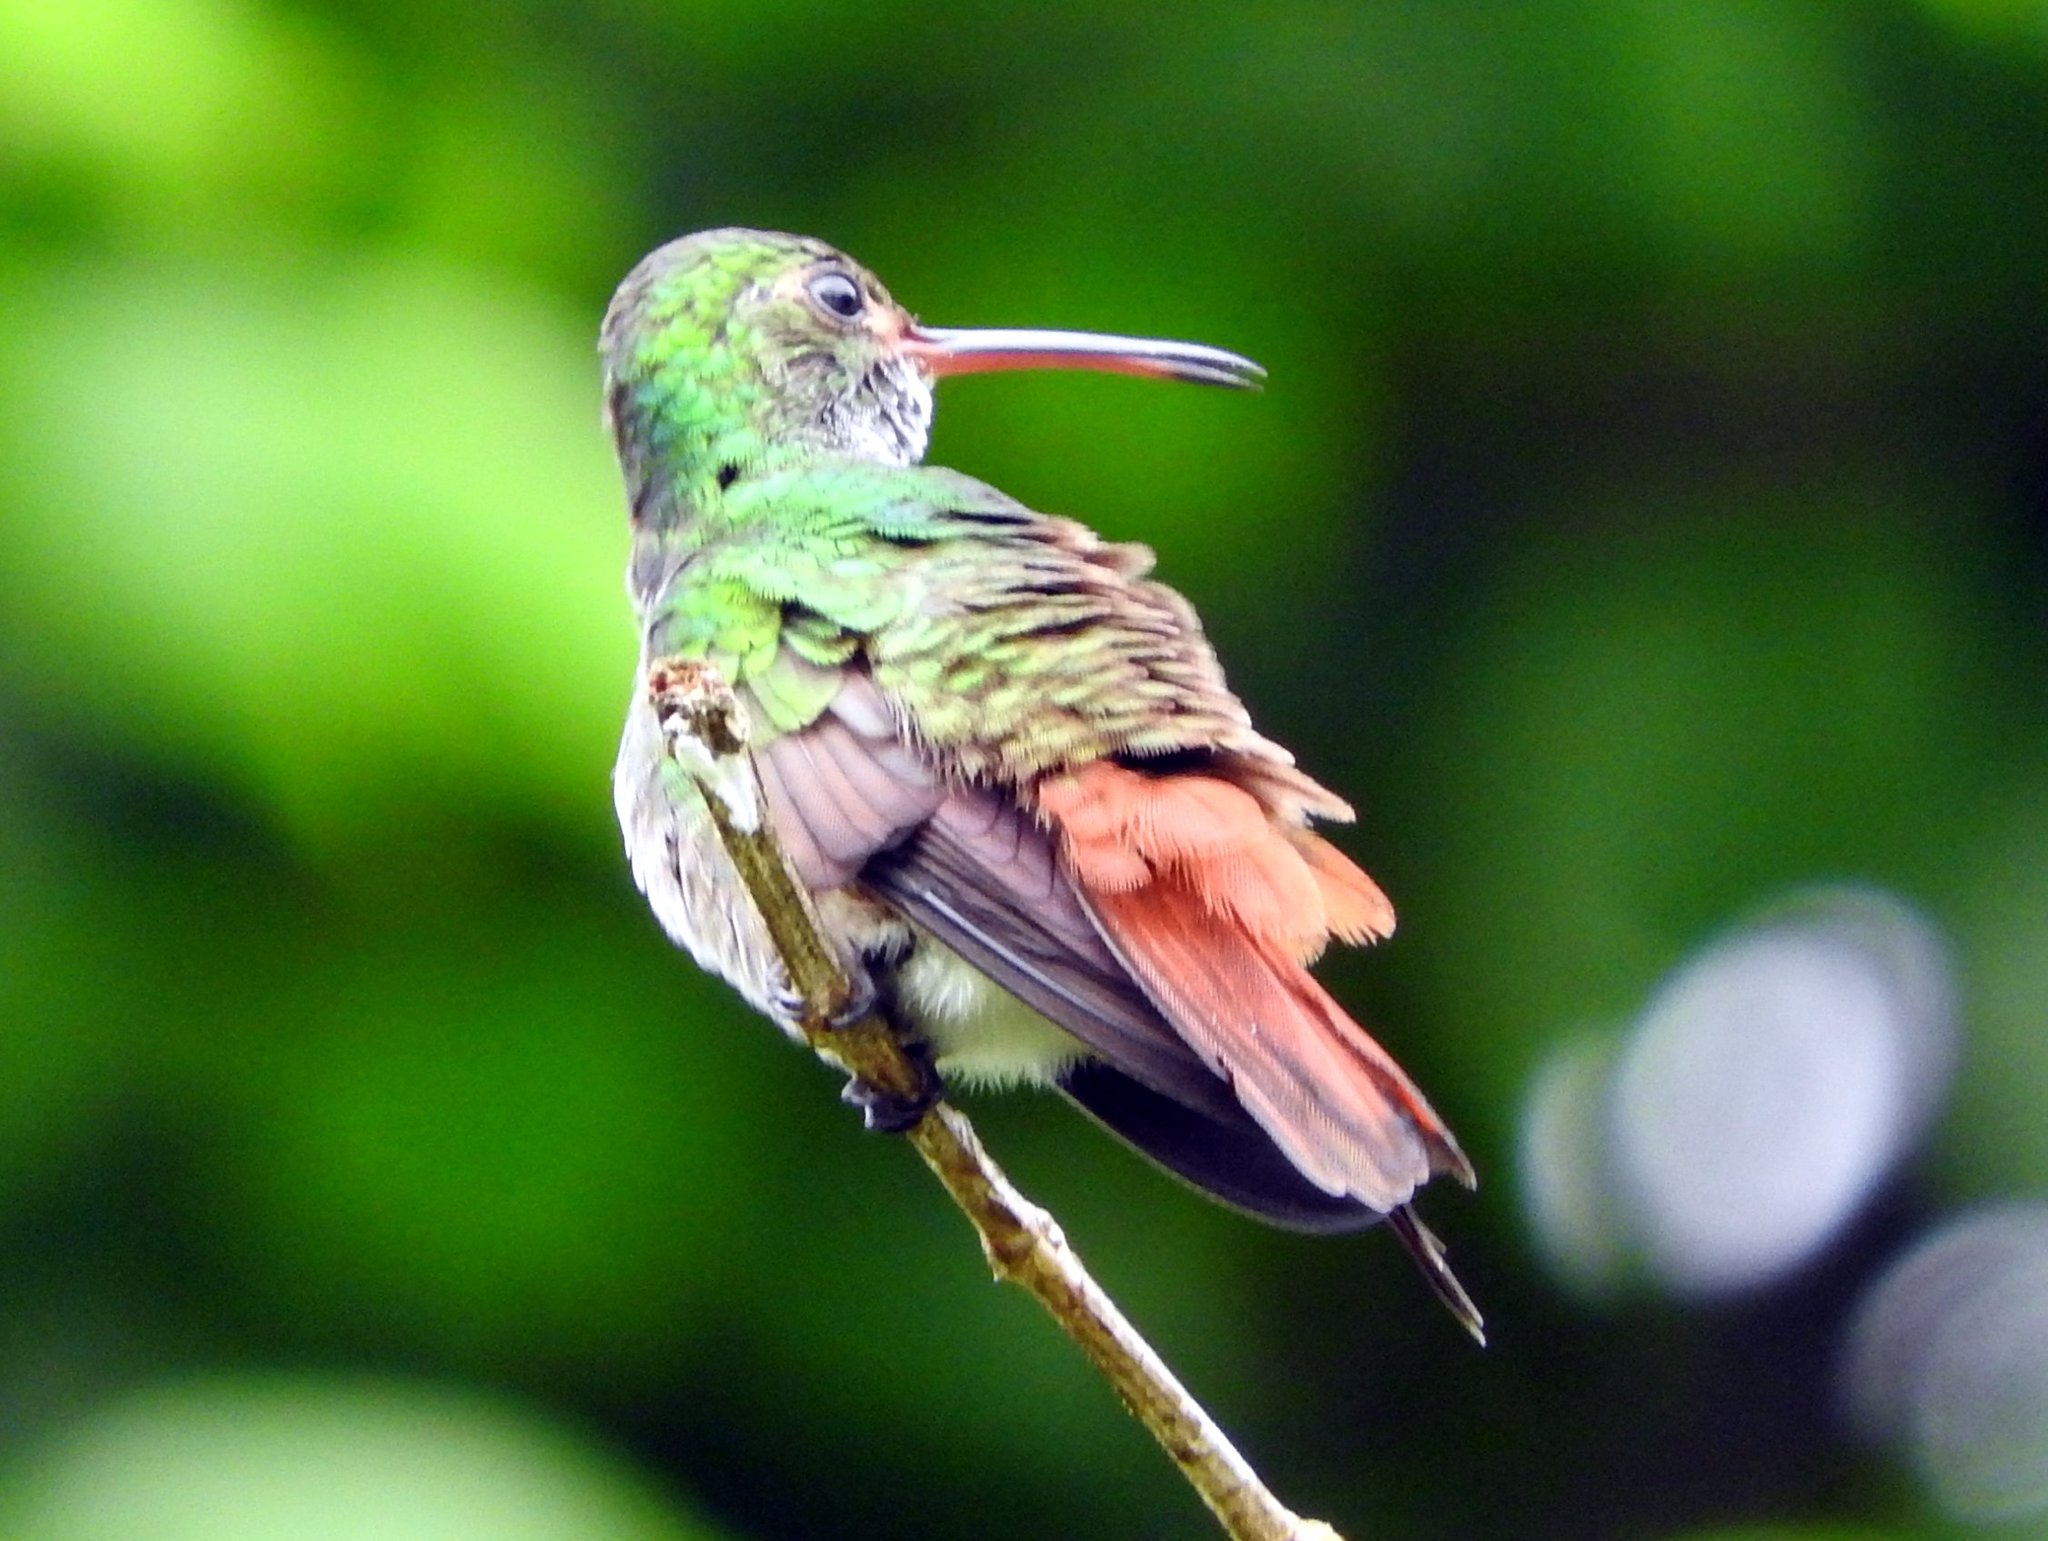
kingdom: Animalia
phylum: Chordata
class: Aves
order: Apodiformes
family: Trochilidae
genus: Amazilia
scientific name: Amazilia tzacatl
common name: Rufous-tailed hummingbird
